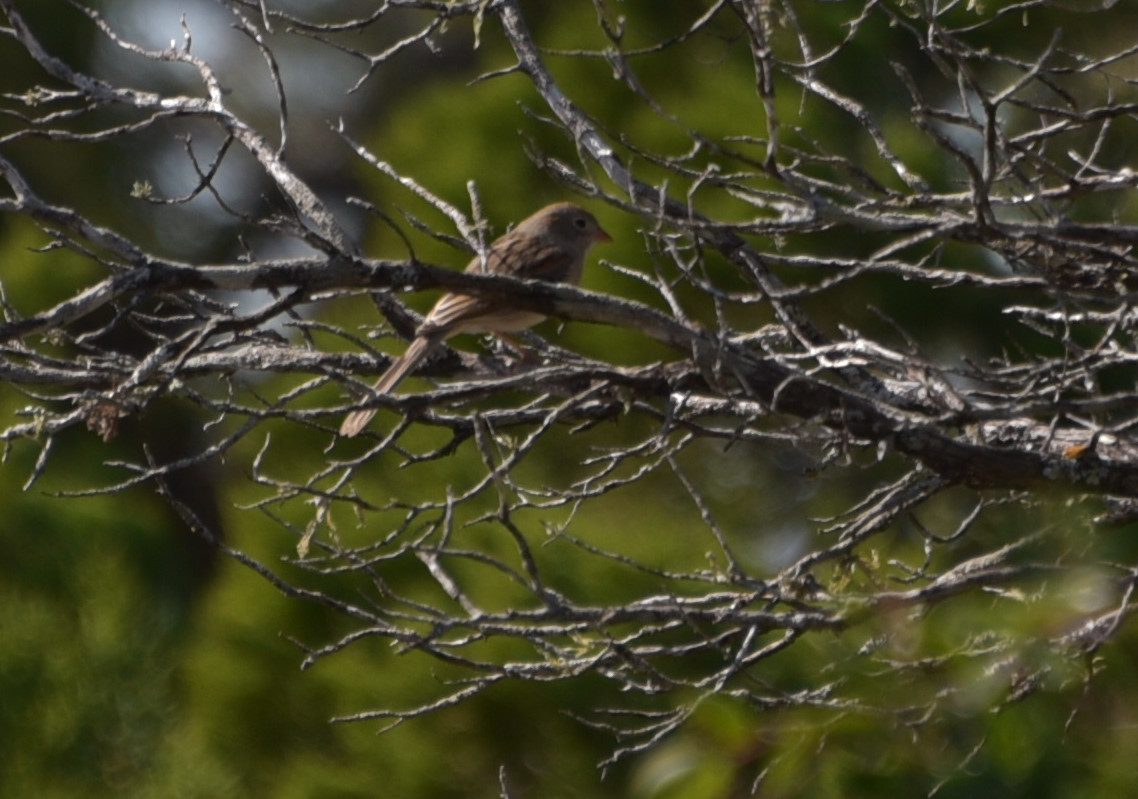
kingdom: Animalia
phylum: Chordata
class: Aves
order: Passeriformes
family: Passerellidae
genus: Spizella
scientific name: Spizella pusilla
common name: Field sparrow
